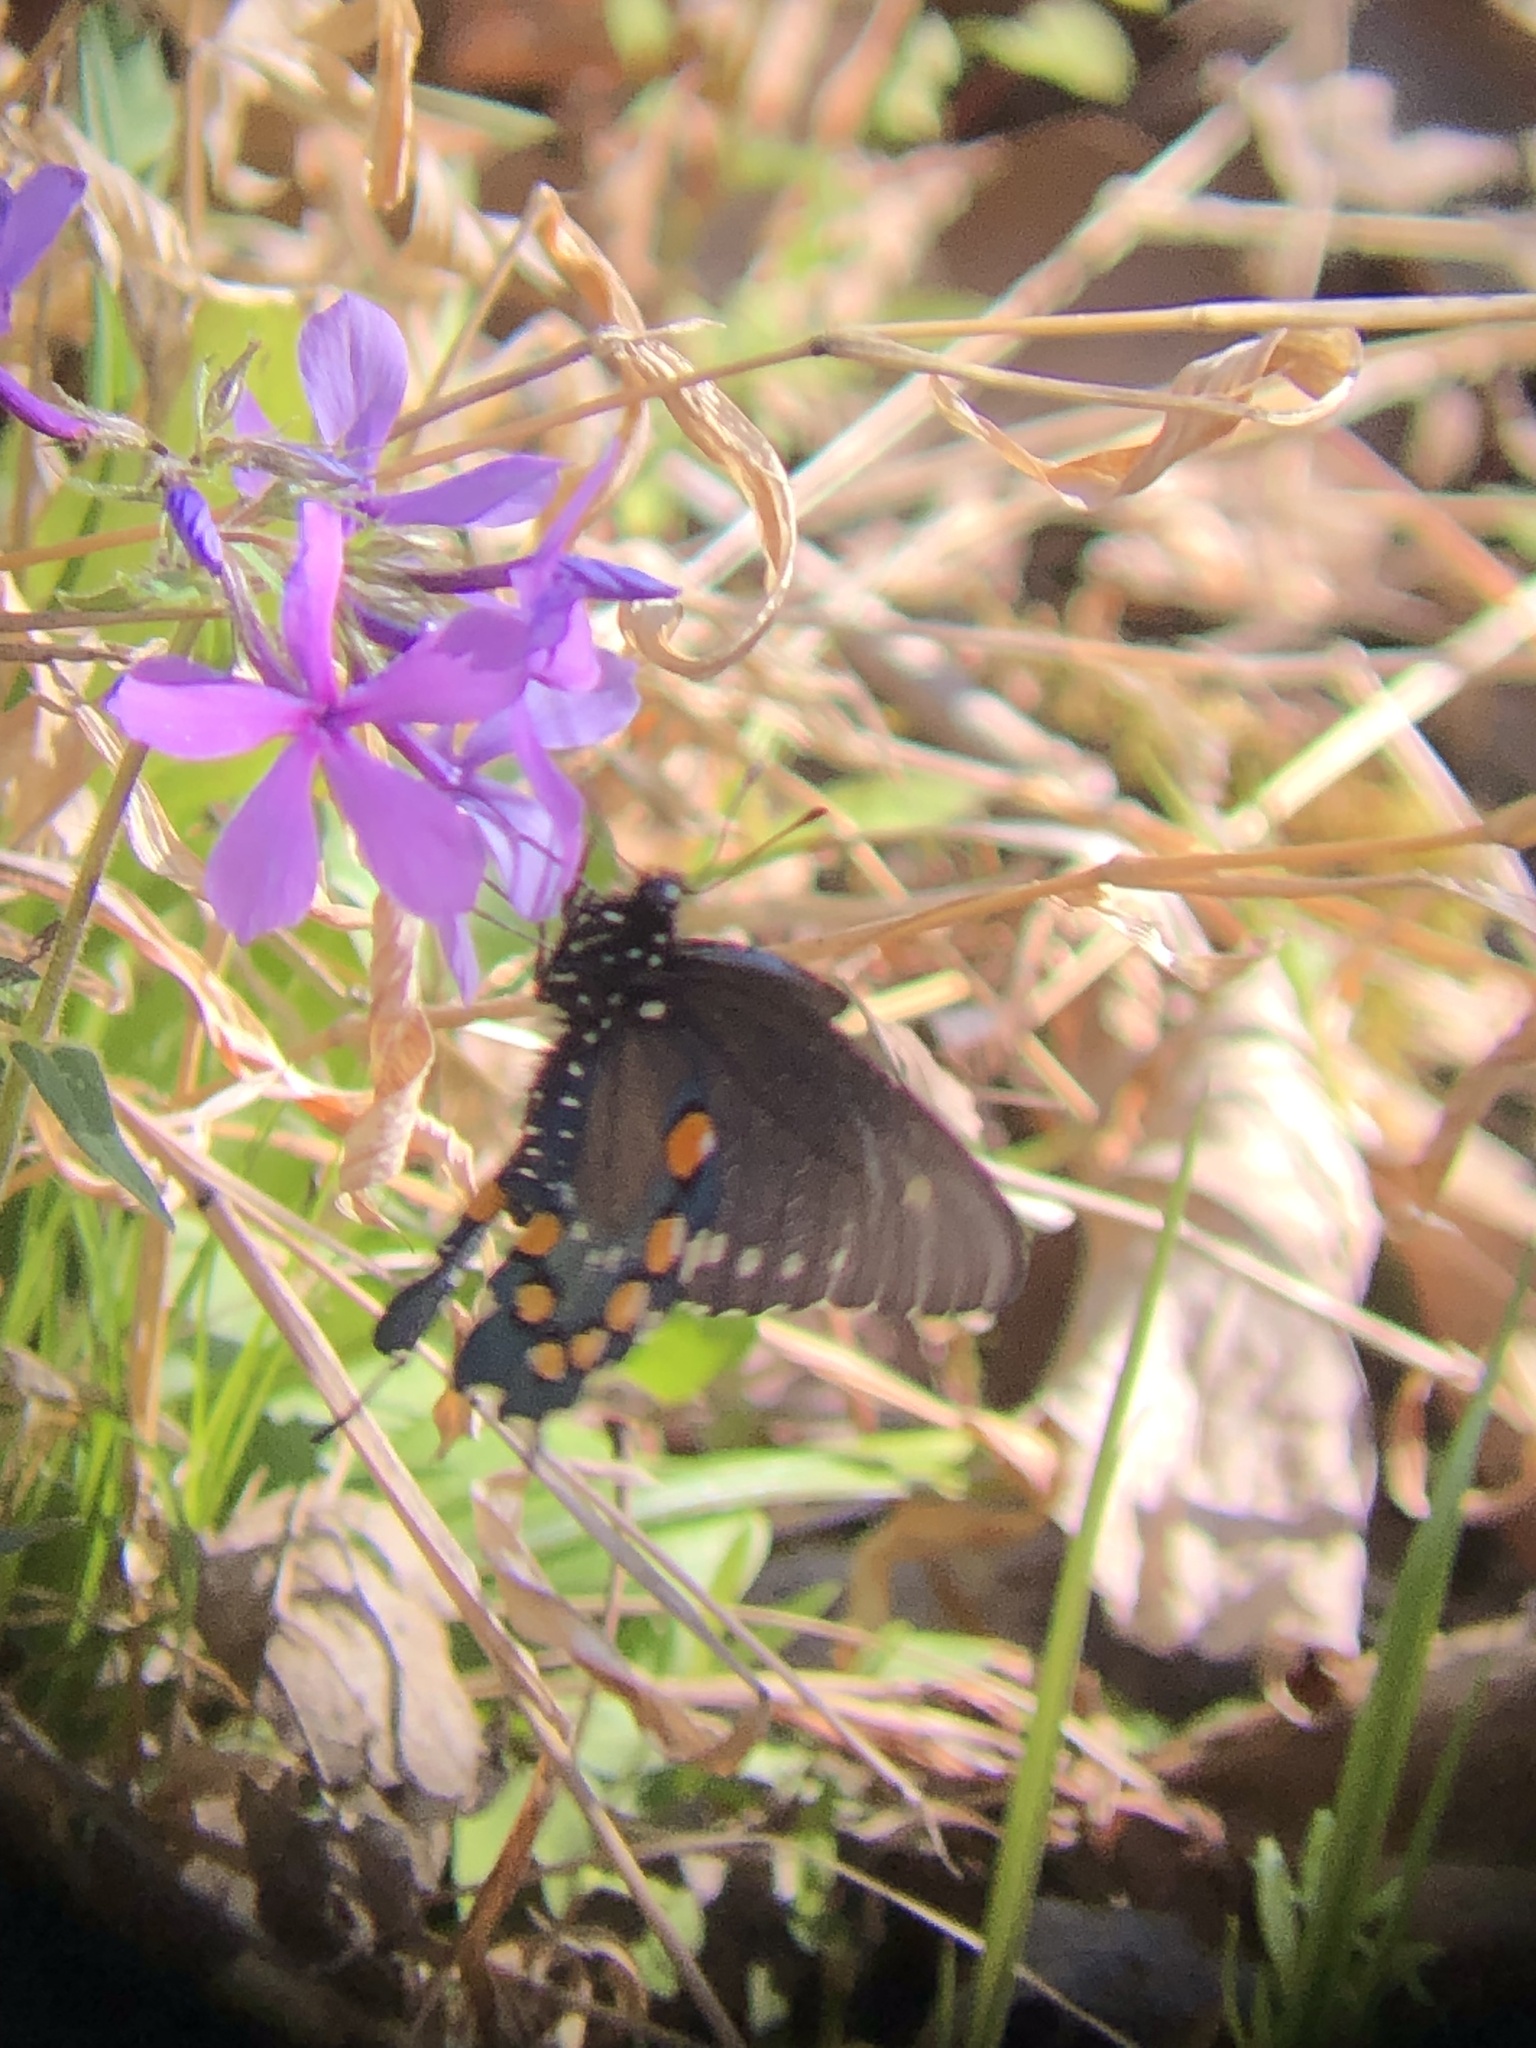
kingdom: Animalia
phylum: Arthropoda
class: Insecta
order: Lepidoptera
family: Papilionidae
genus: Battus
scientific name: Battus philenor
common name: Pipevine swallowtail
